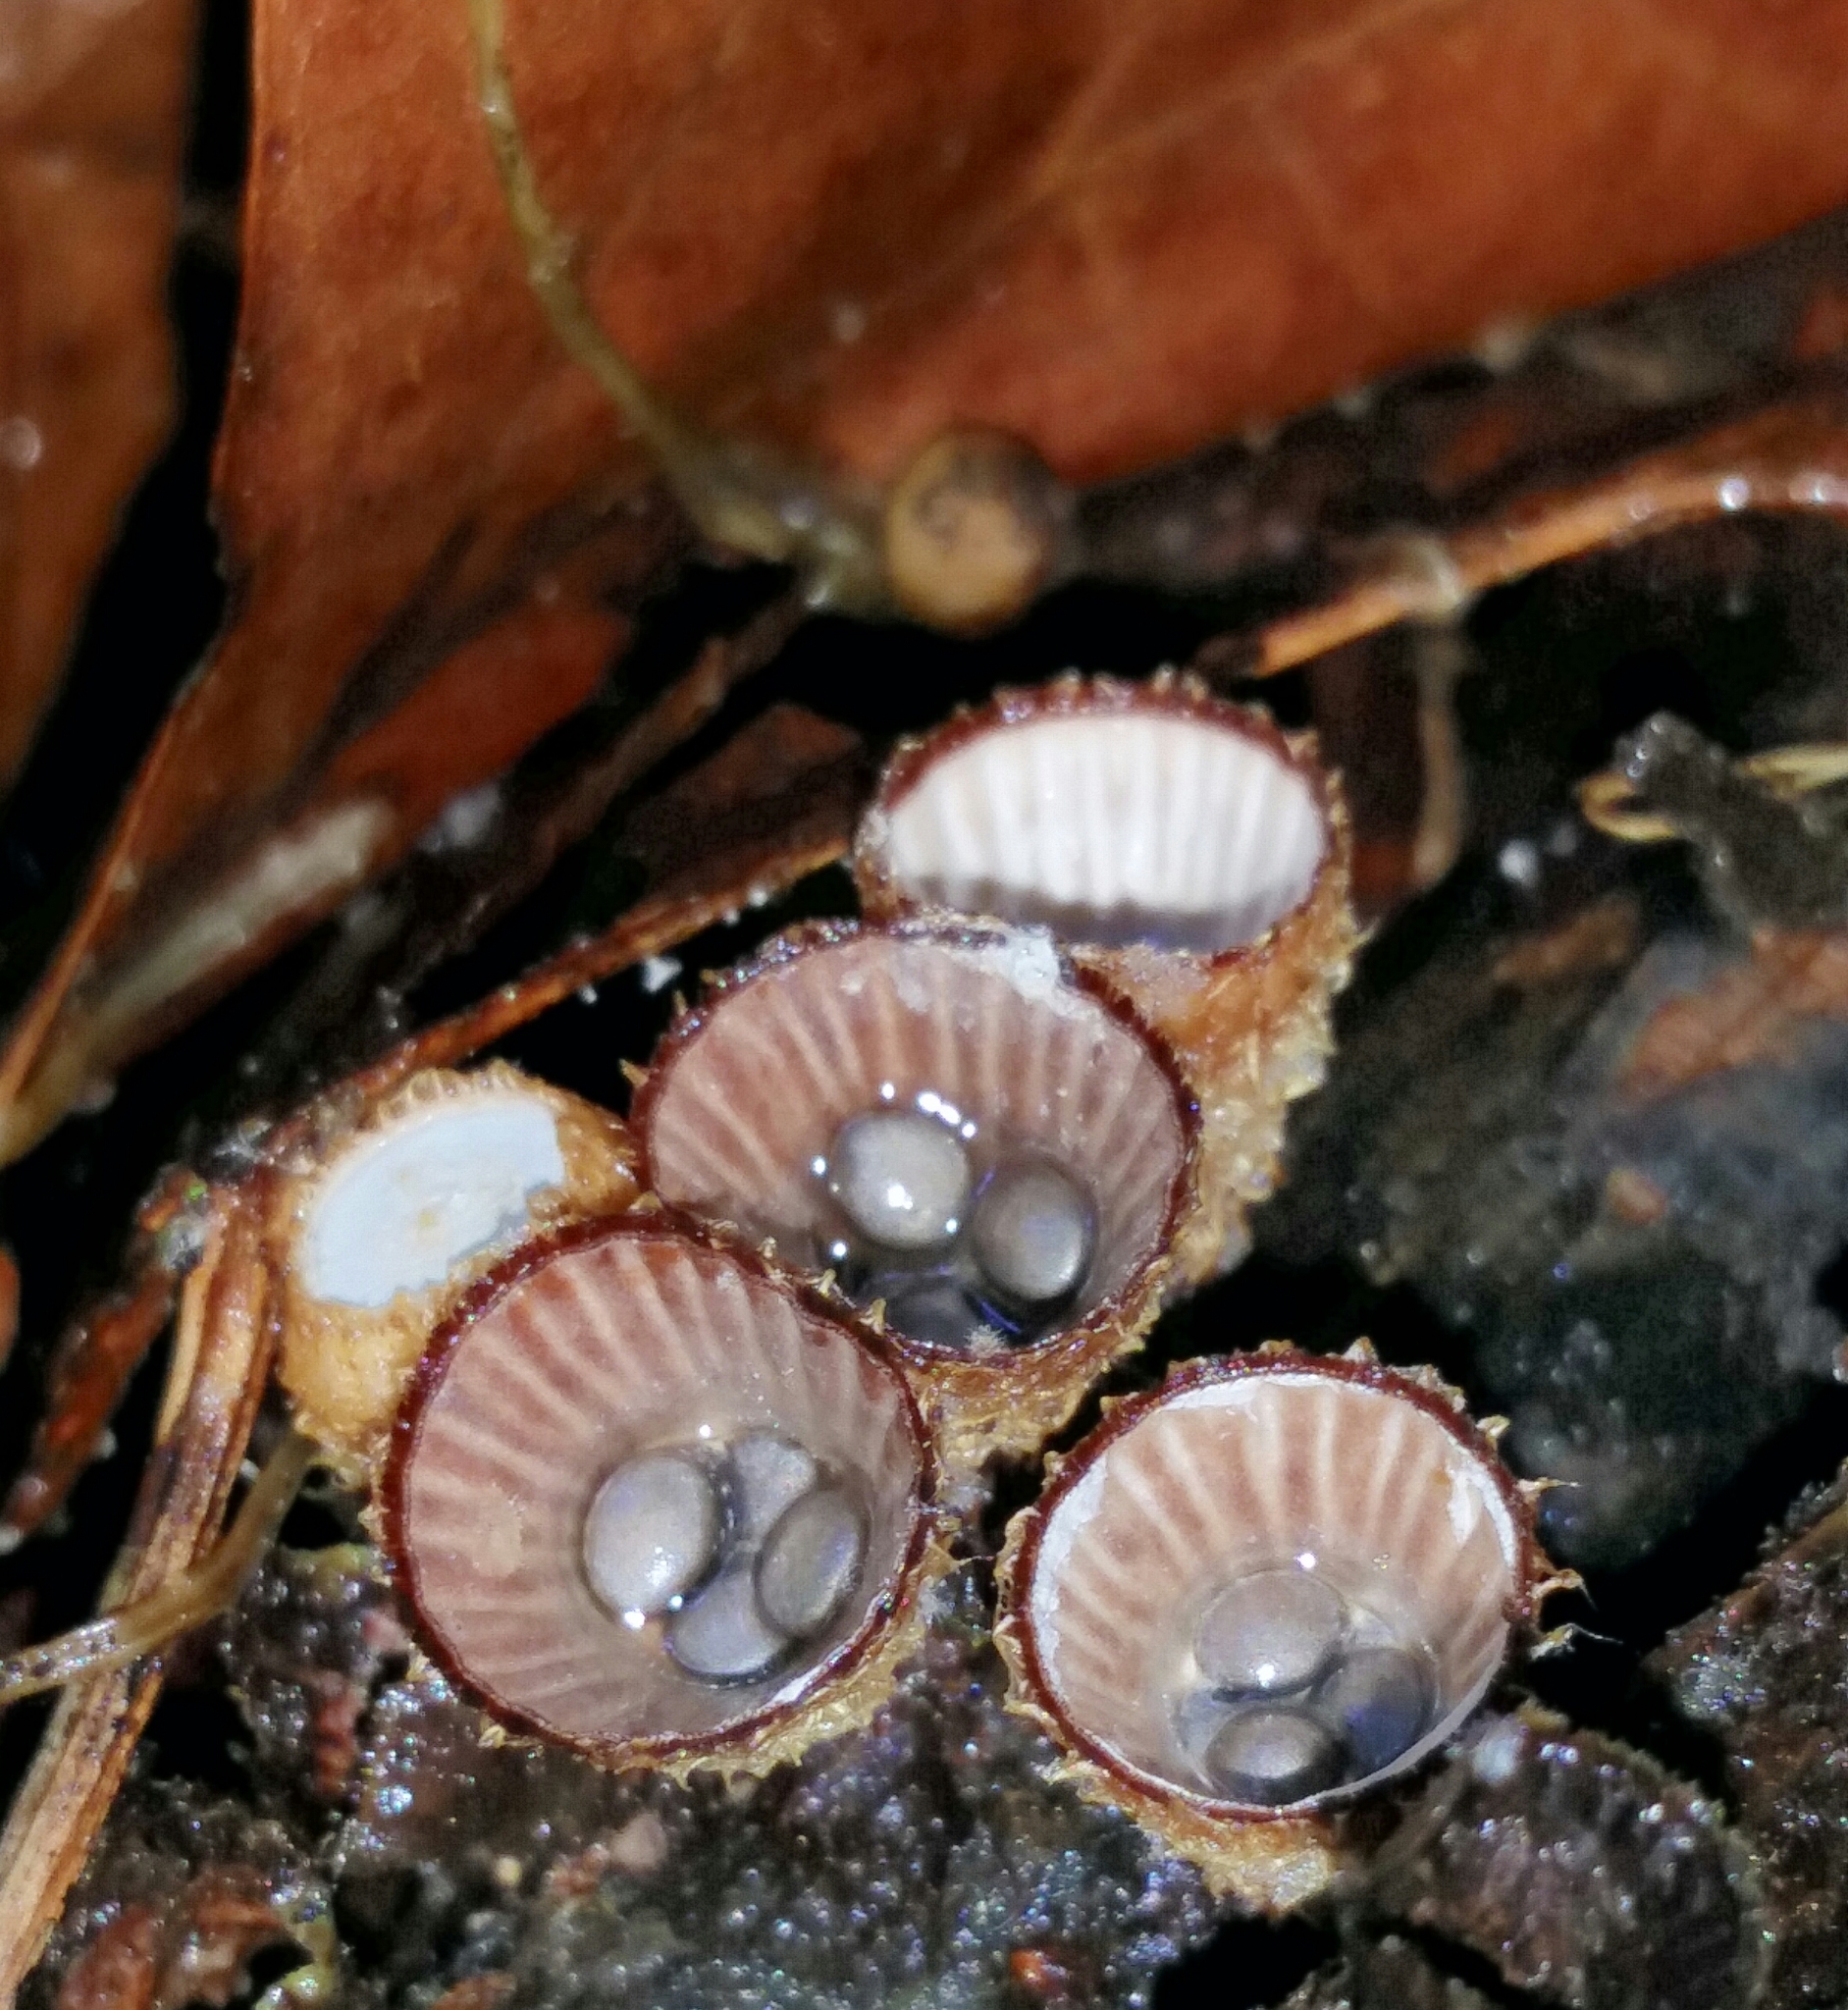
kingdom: Fungi
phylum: Basidiomycota
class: Agaricomycetes
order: Agaricales
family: Agaricaceae
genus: Cyathus
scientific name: Cyathus striatus
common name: Fluted bird's nest
